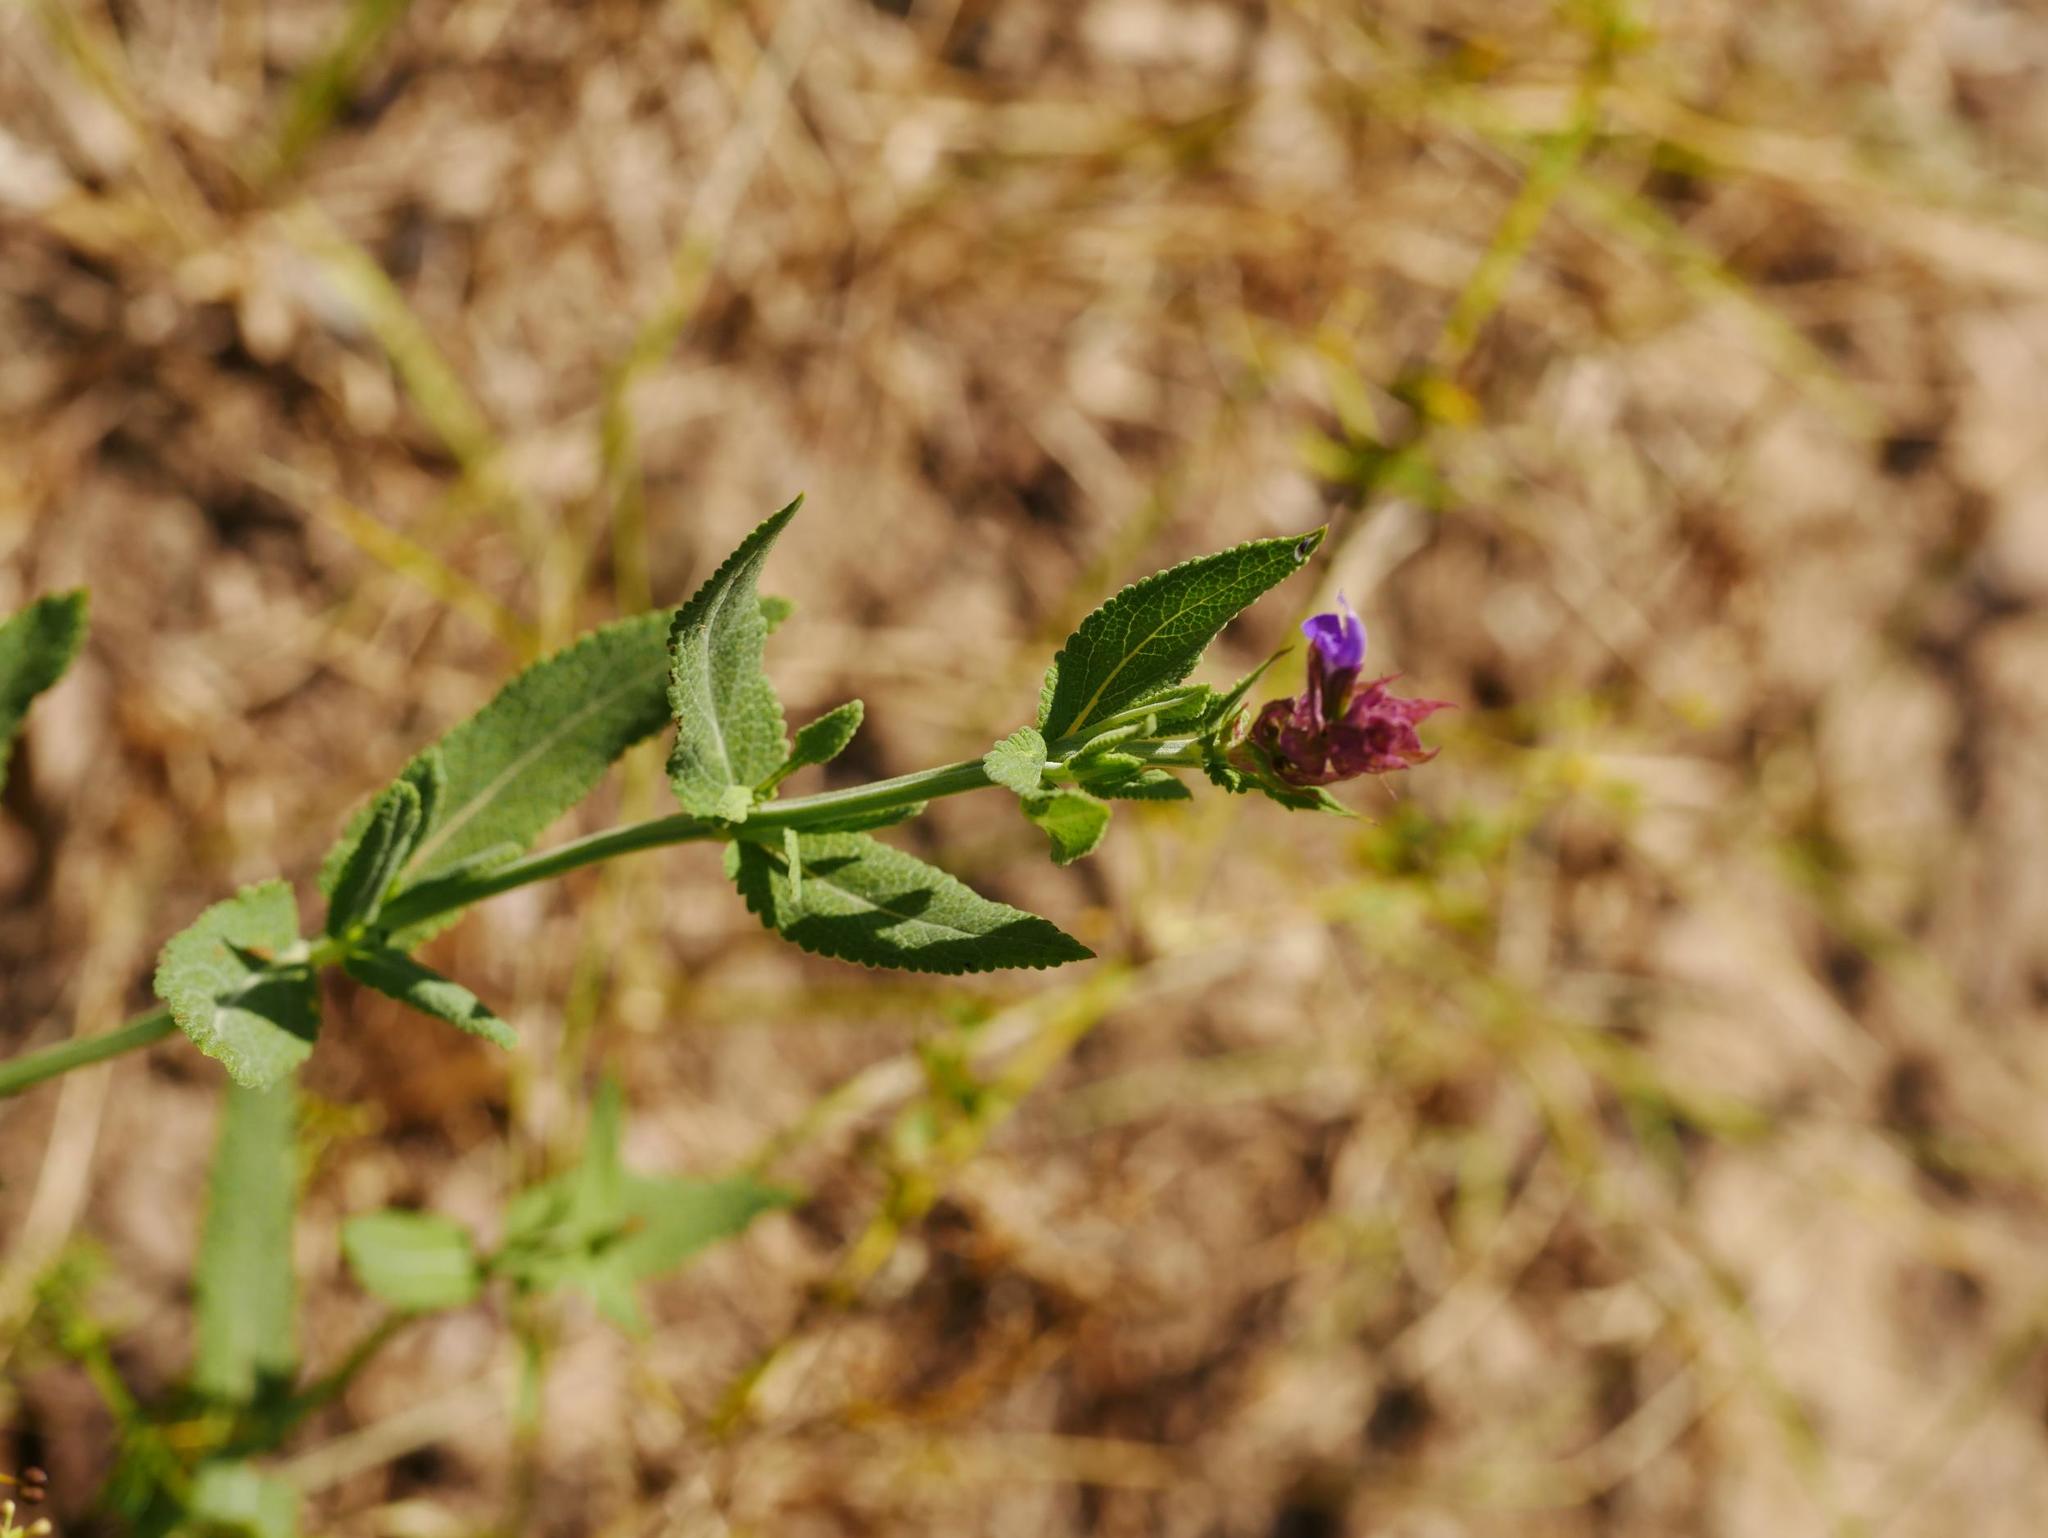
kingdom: Plantae
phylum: Tracheophyta
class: Magnoliopsida
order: Lamiales
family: Lamiaceae
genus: Salvia
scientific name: Salvia nemorosa
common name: Balkan clary
